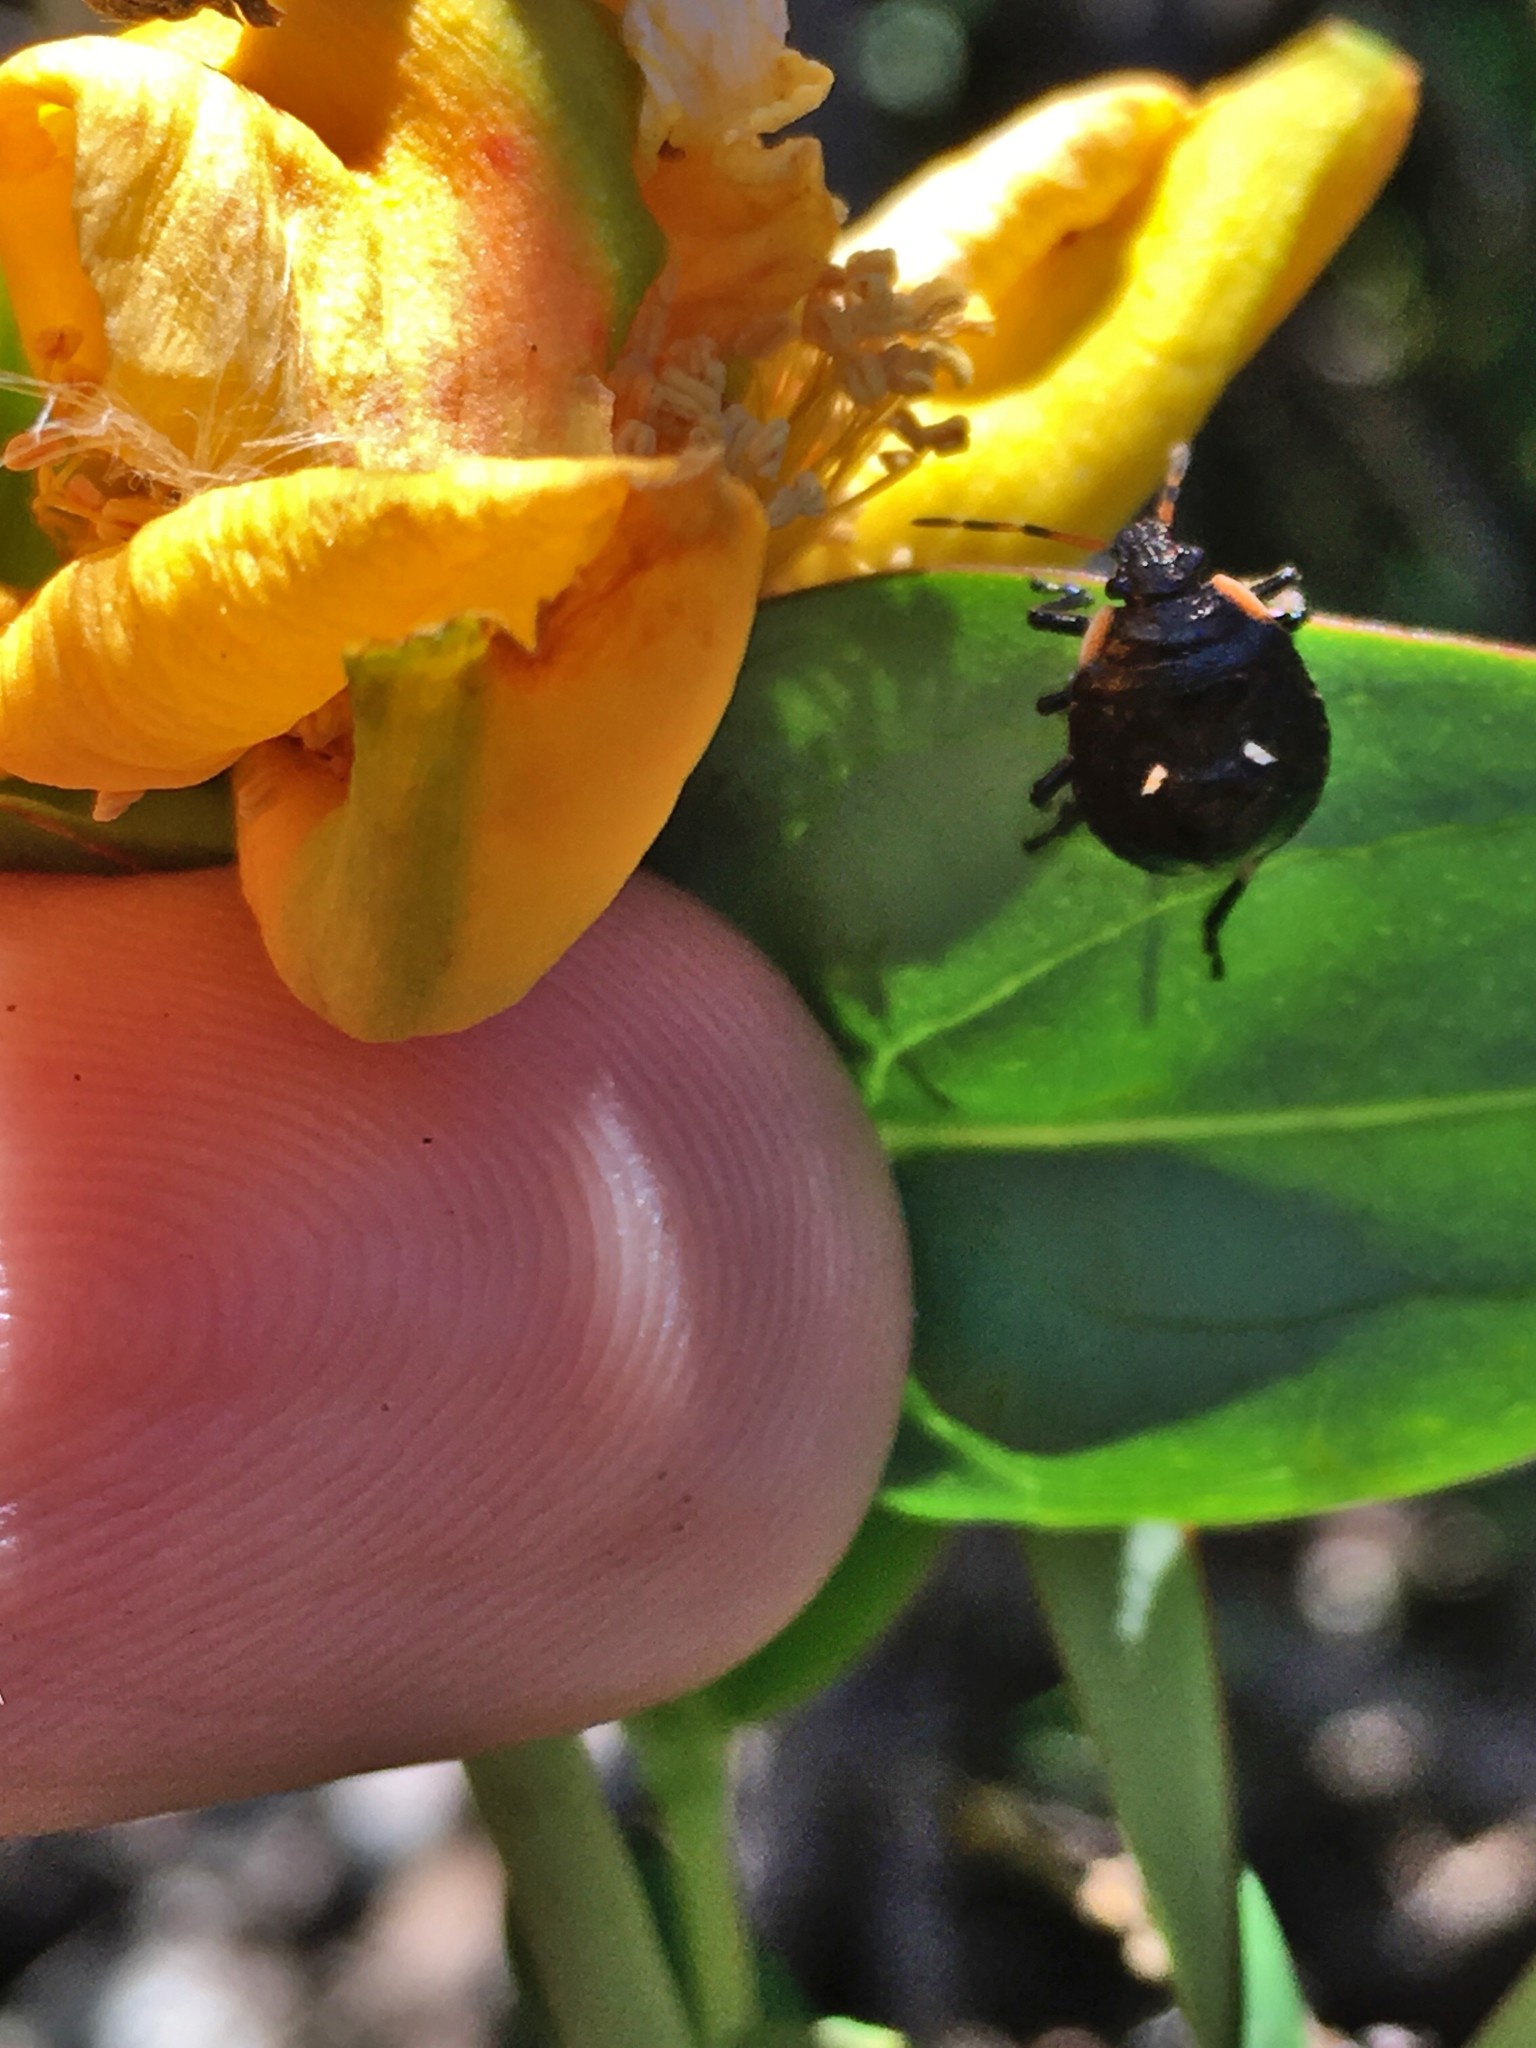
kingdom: Animalia
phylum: Arthropoda
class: Insecta
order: Hemiptera
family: Pentatomidae
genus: Cermatulus
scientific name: Cermatulus nasalis
